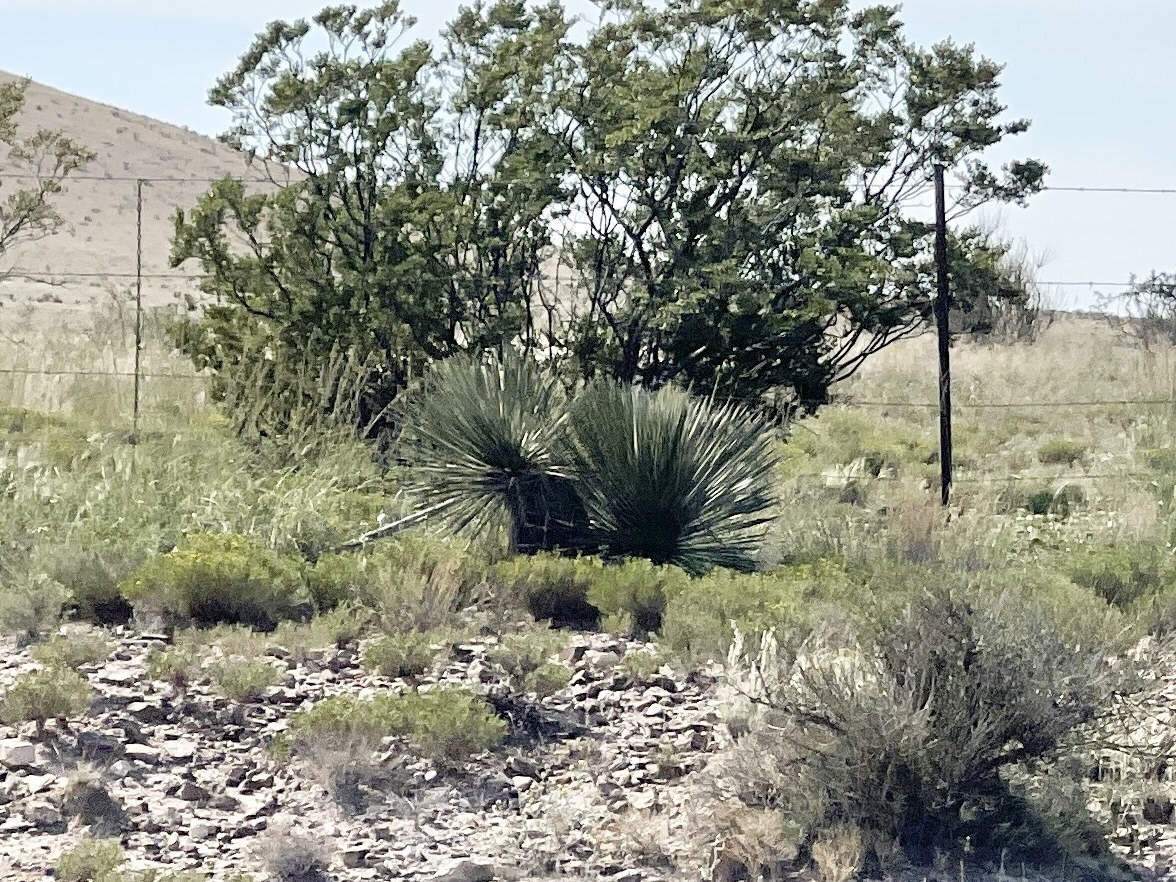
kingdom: Plantae
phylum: Tracheophyta
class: Liliopsida
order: Asparagales
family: Asparagaceae
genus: Yucca
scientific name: Yucca elata
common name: Palmella
